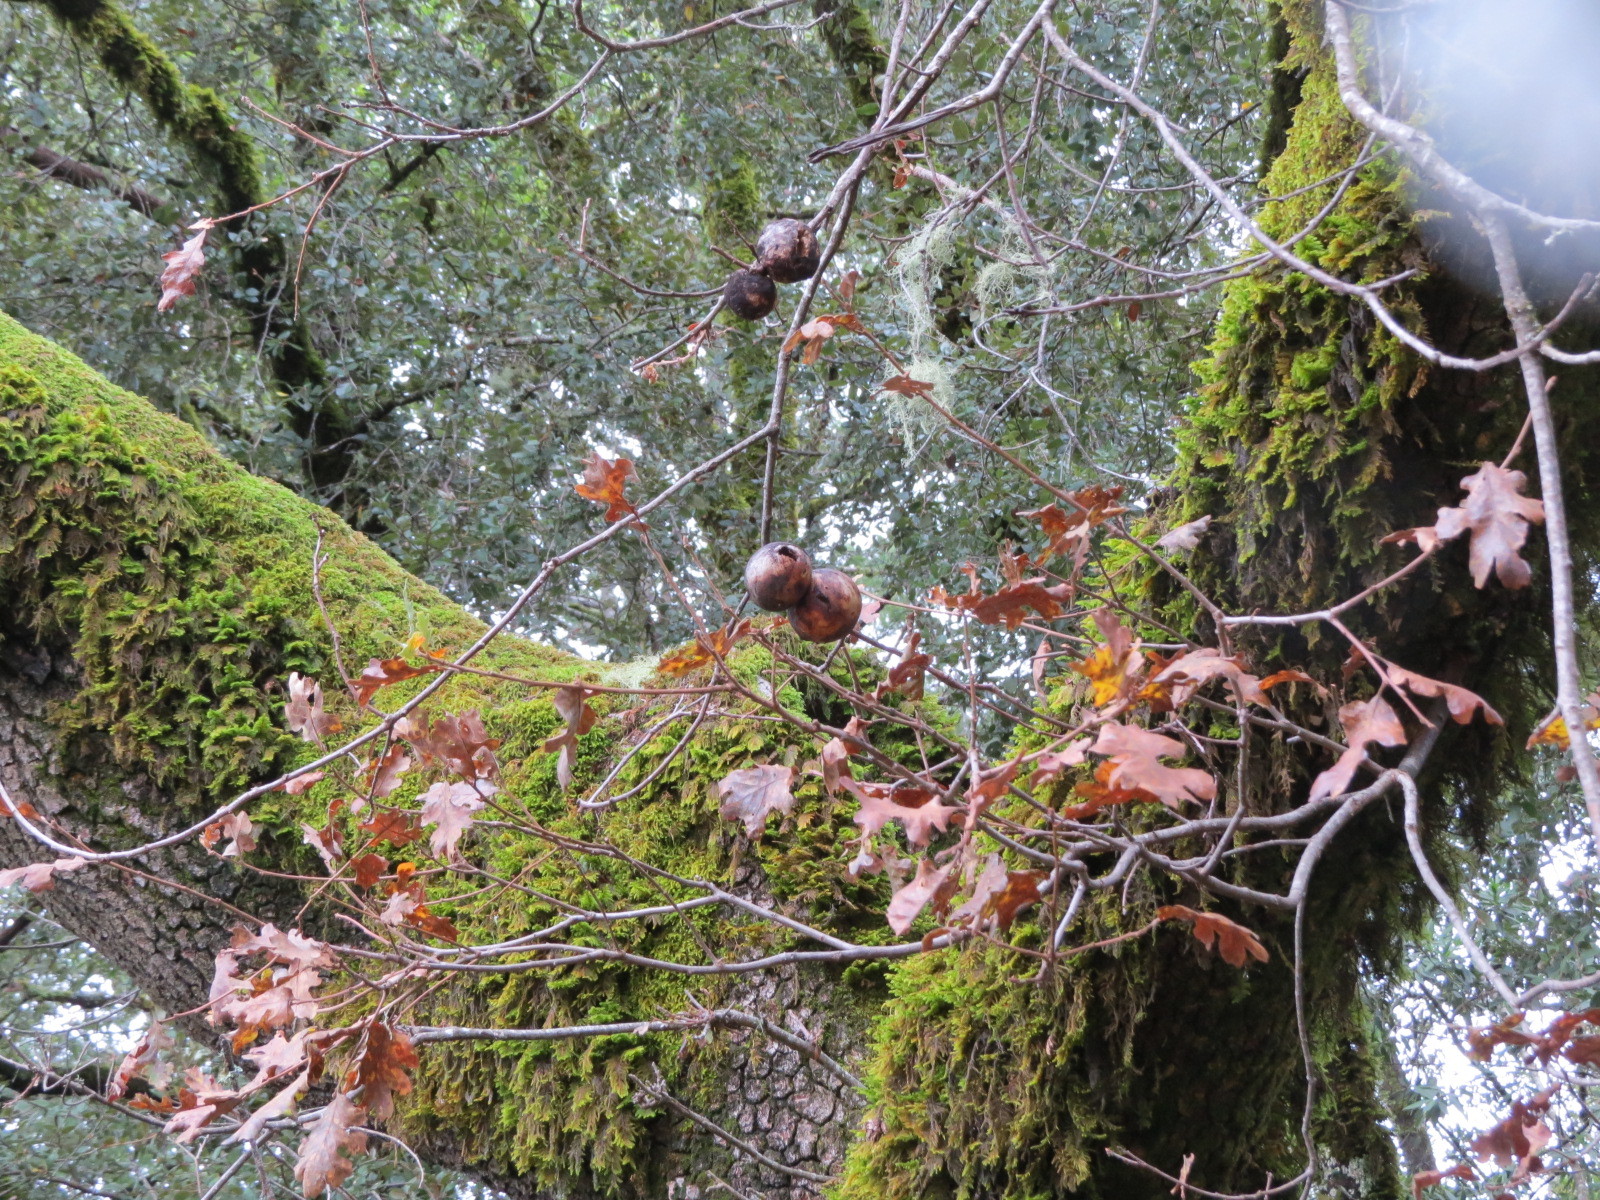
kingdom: Animalia
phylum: Arthropoda
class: Insecta
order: Hymenoptera
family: Cynipidae
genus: Andricus
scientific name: Andricus quercuscalifornicus
